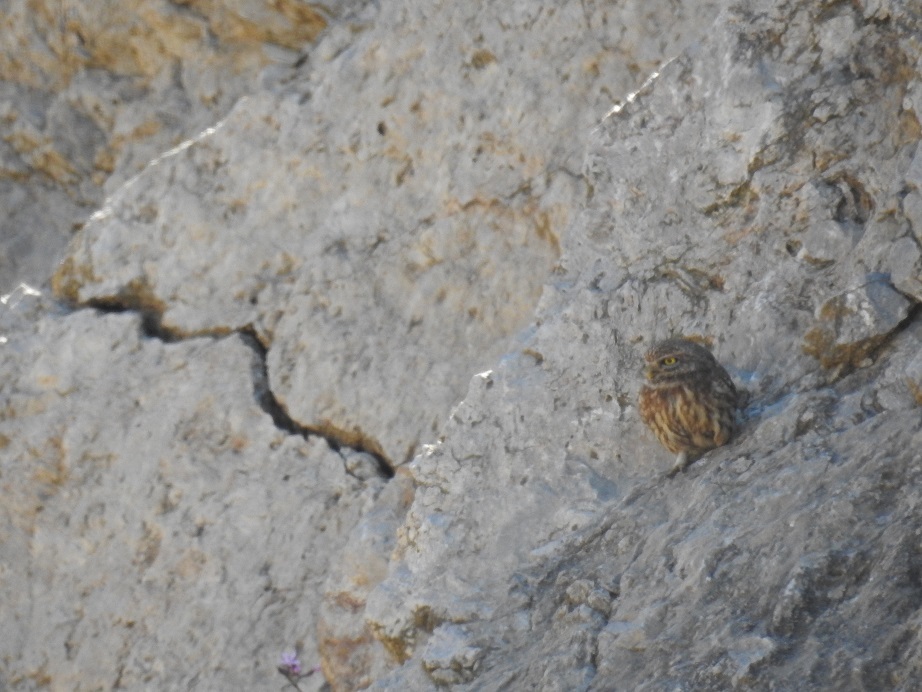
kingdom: Animalia
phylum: Chordata
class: Aves
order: Strigiformes
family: Strigidae
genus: Athene
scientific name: Athene noctua
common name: Little owl
